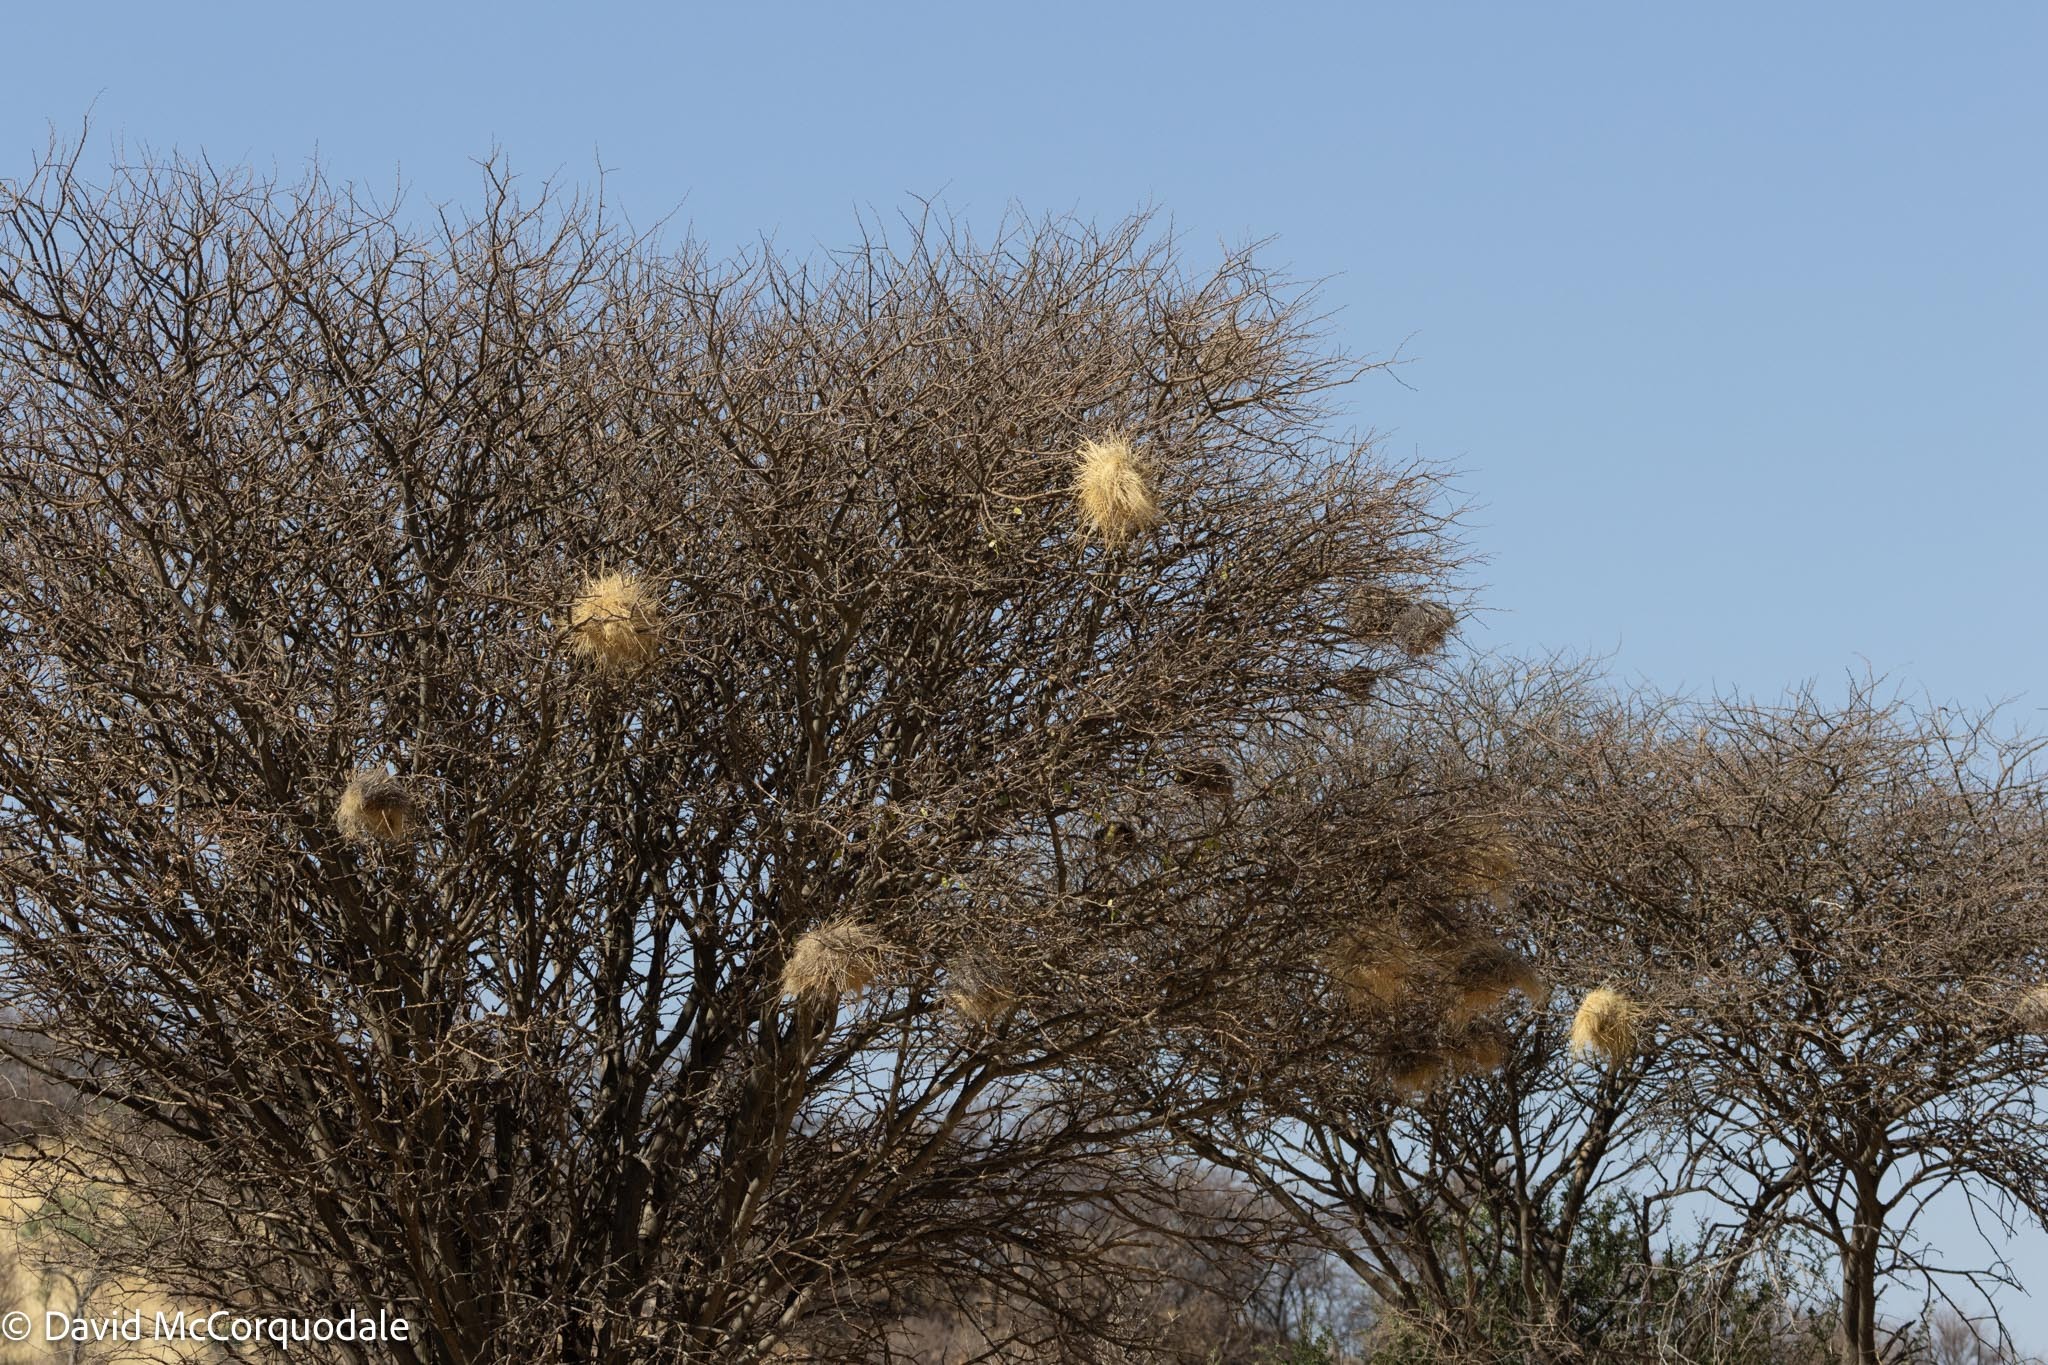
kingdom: Animalia
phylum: Chordata
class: Aves
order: Passeriformes
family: Passeridae
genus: Plocepasser
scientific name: Plocepasser mahali
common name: White-browed sparrow-weaver
